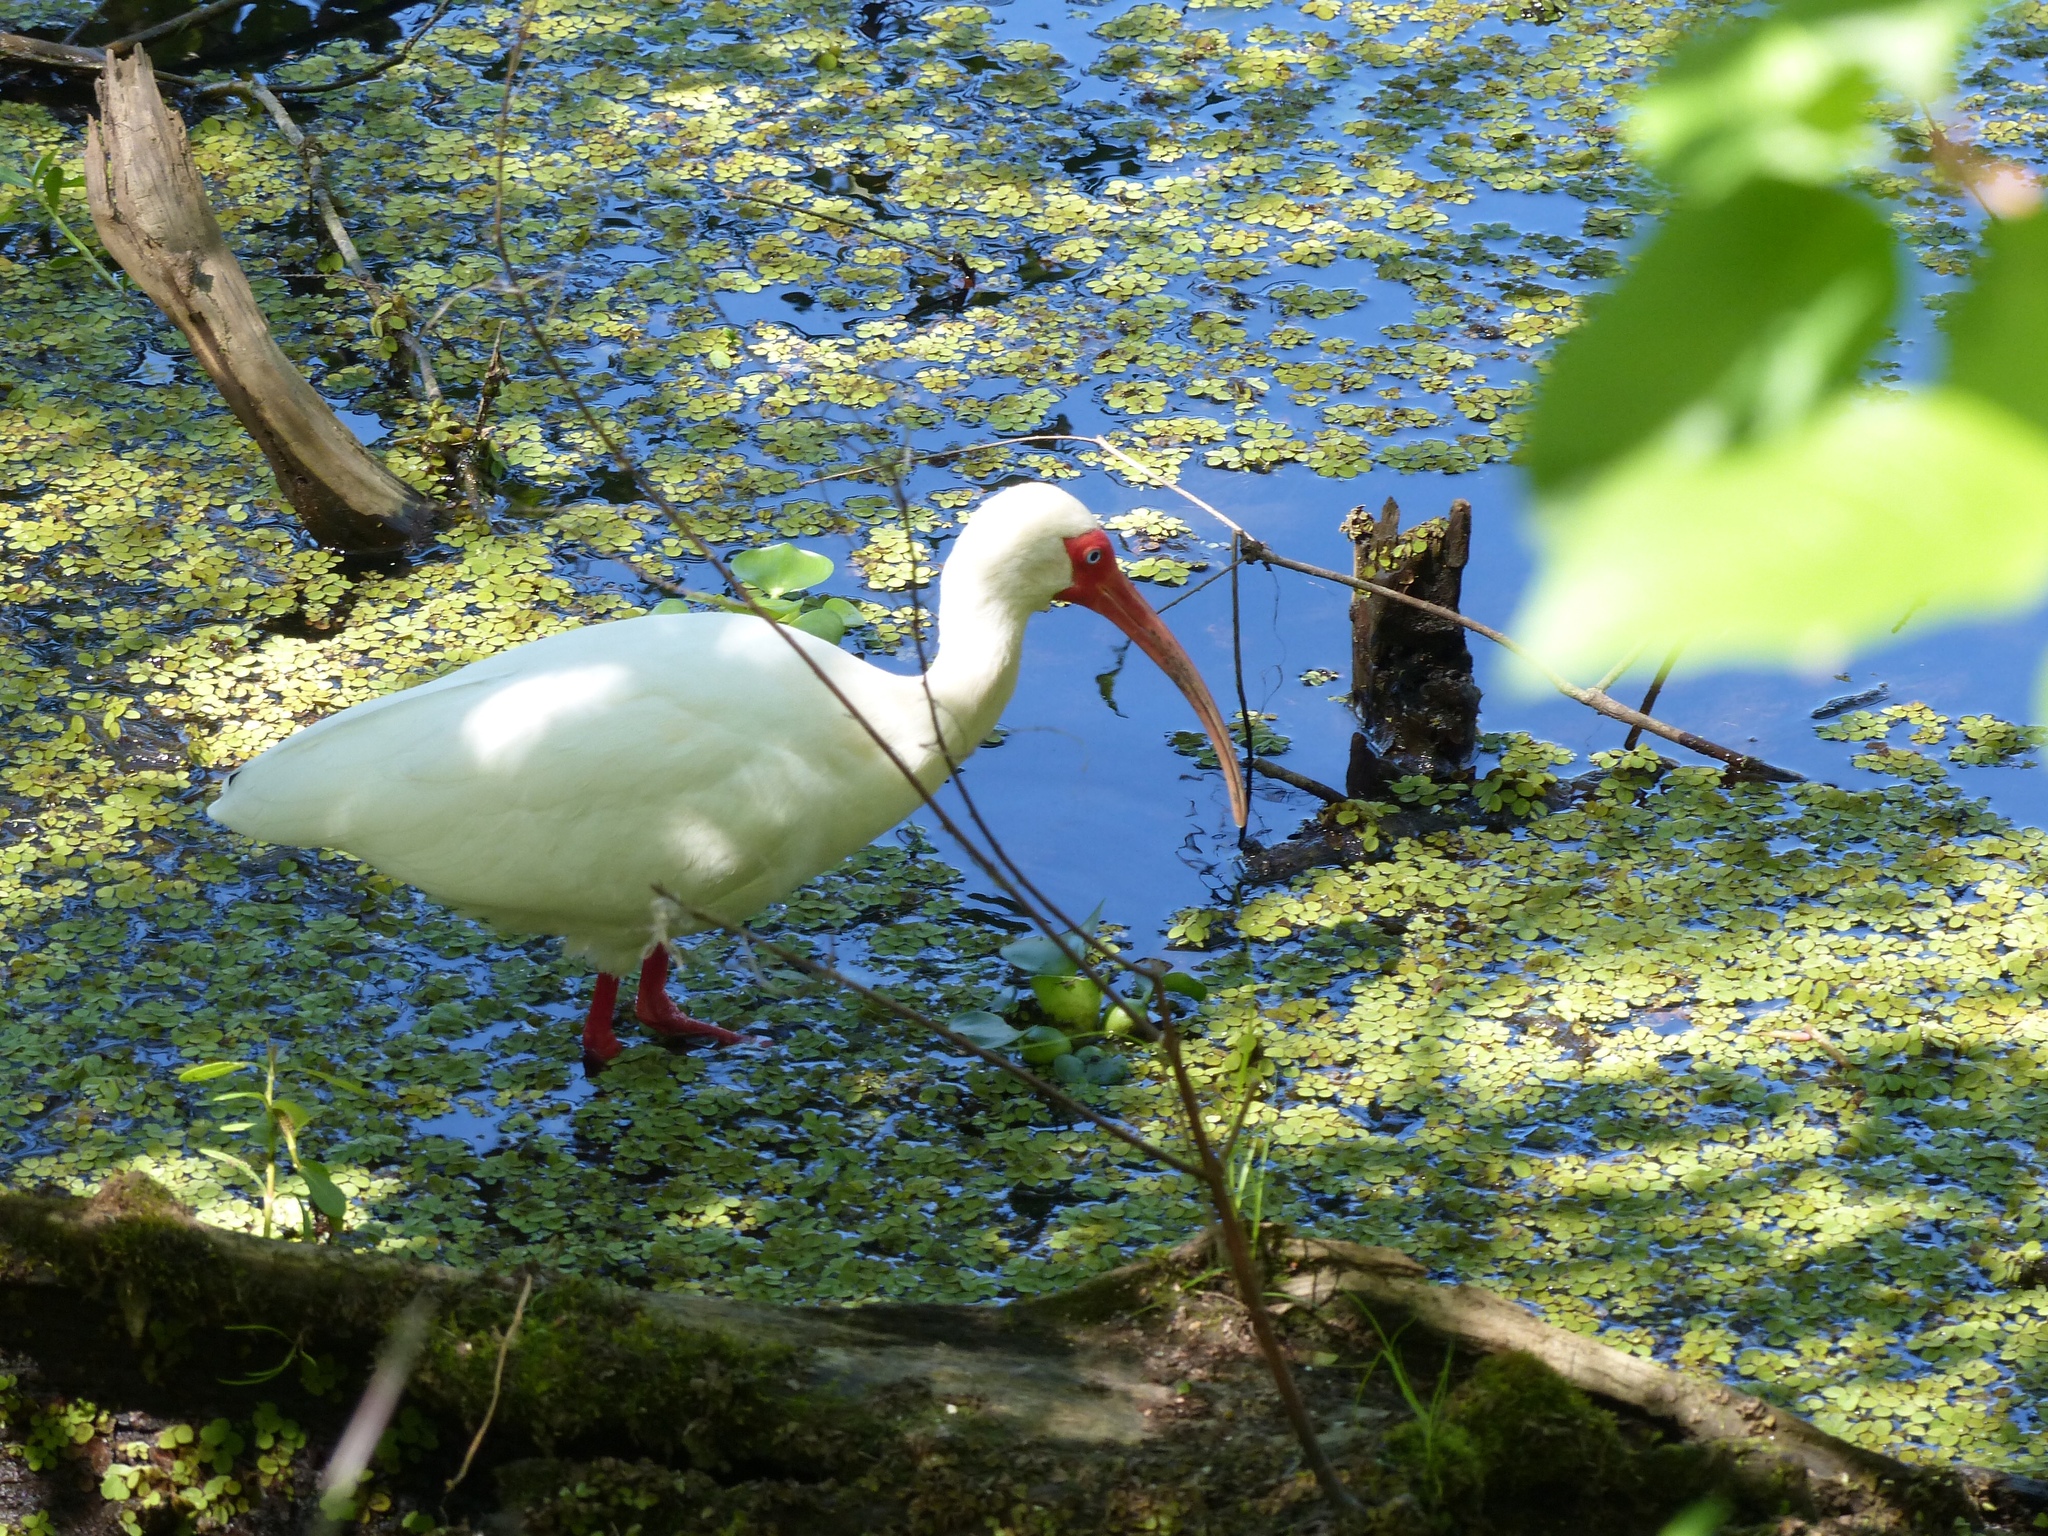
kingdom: Animalia
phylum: Chordata
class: Aves
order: Pelecaniformes
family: Threskiornithidae
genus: Eudocimus
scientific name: Eudocimus albus
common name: White ibis
